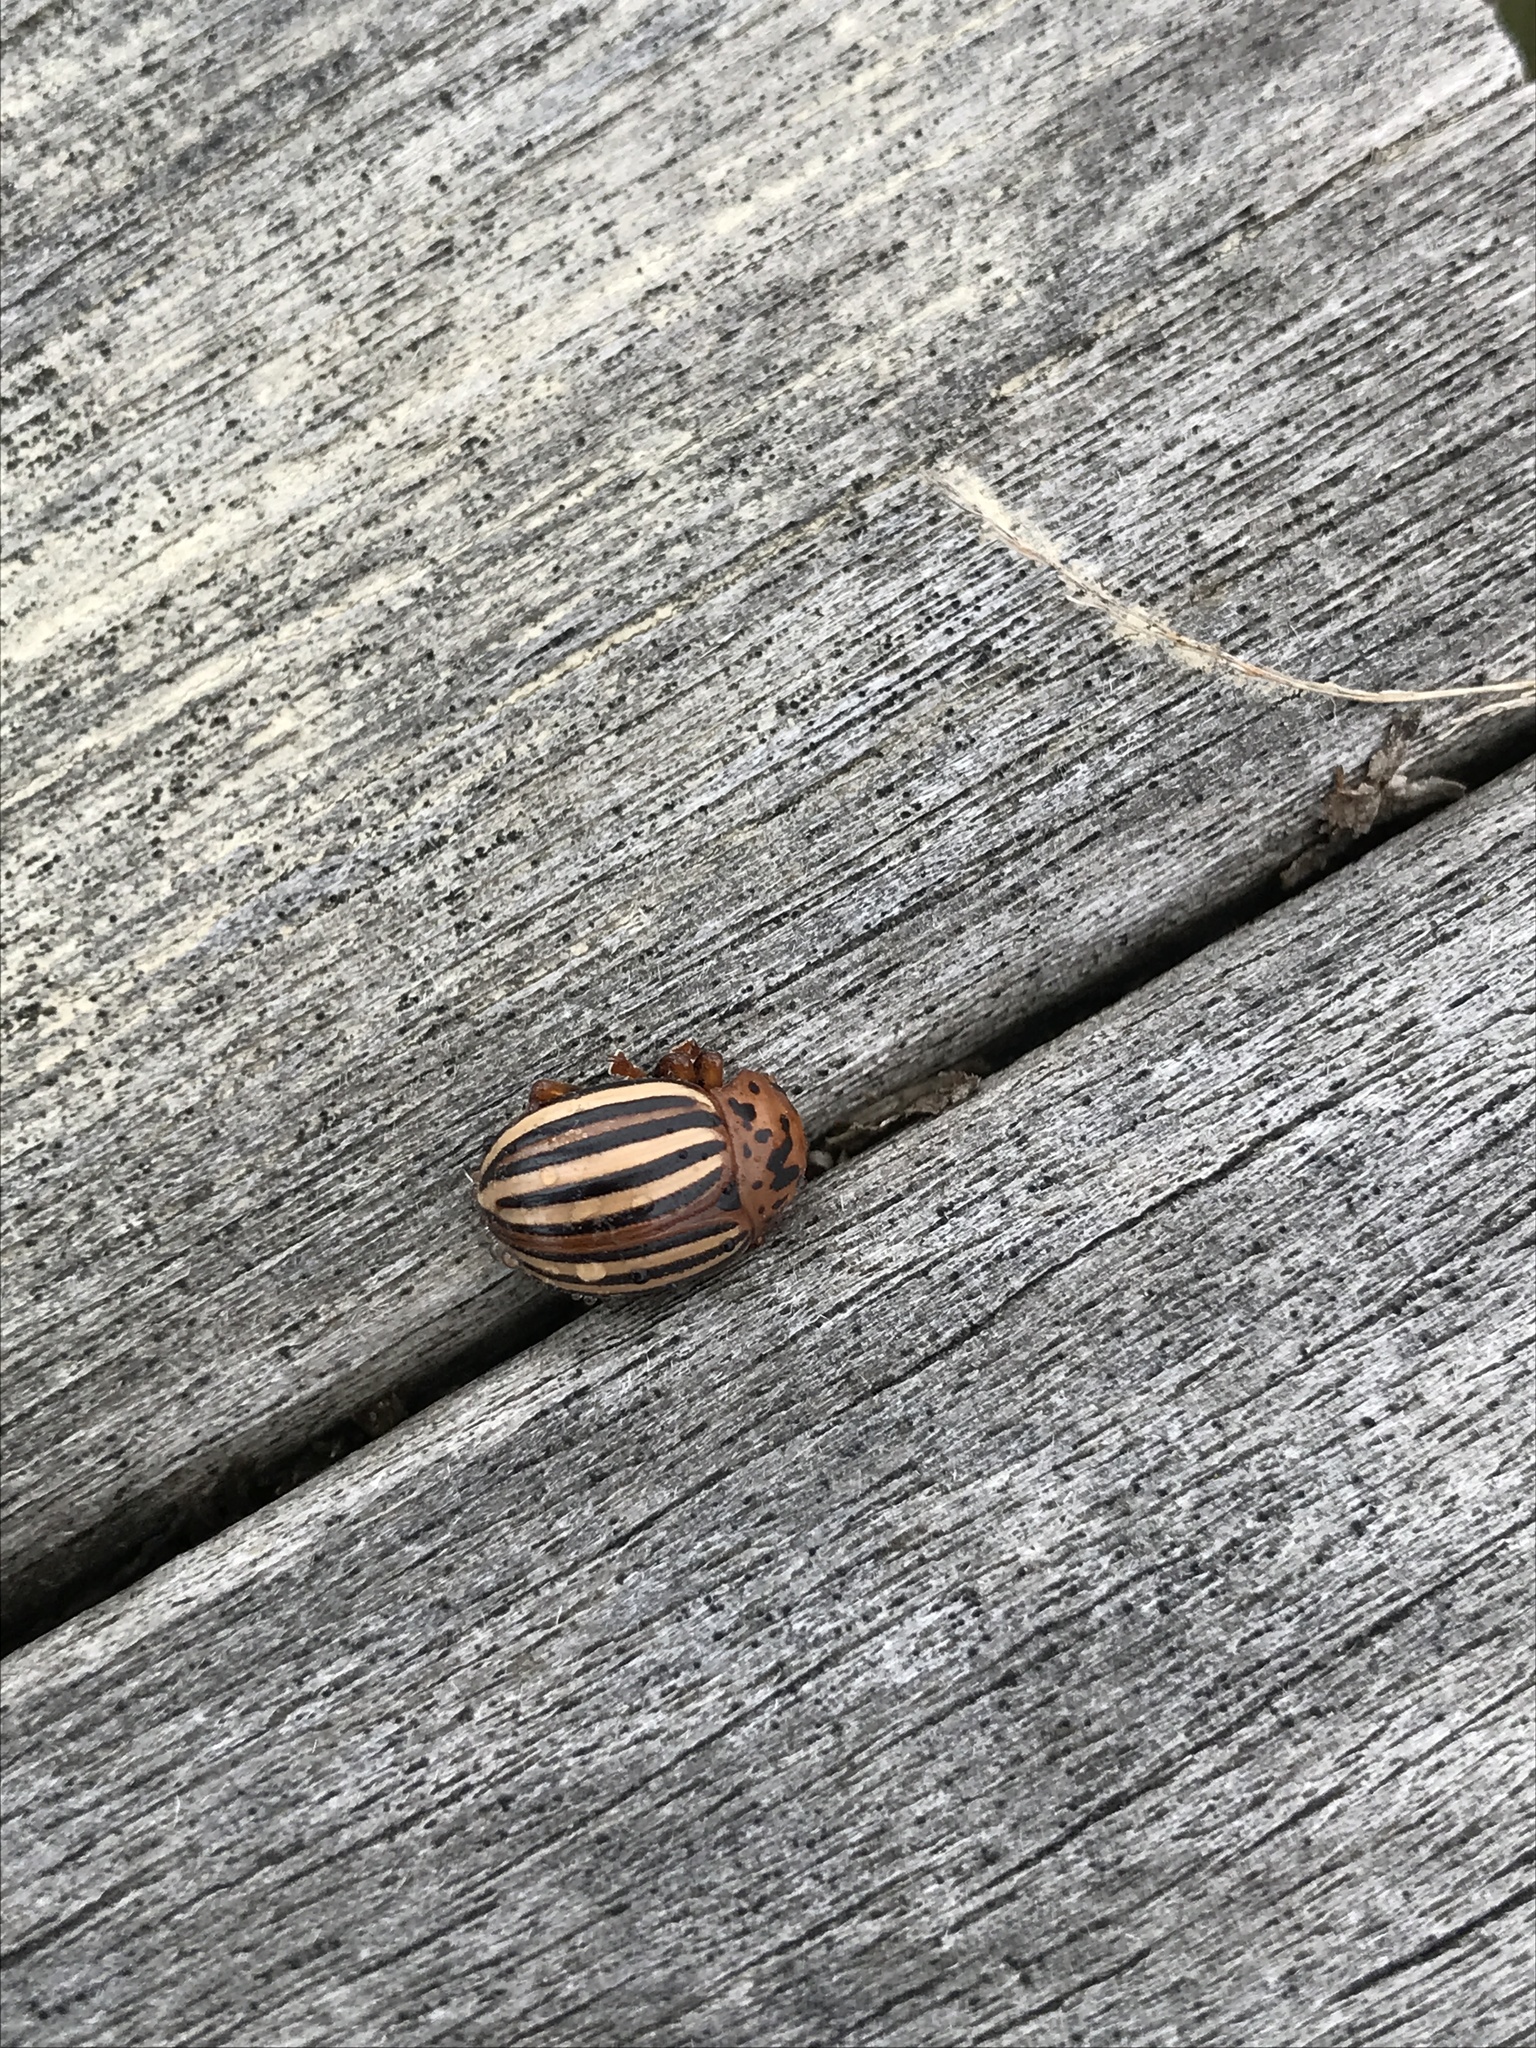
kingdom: Animalia
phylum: Arthropoda
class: Insecta
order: Coleoptera
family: Chrysomelidae
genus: Leptinotarsa
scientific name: Leptinotarsa juncta
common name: False potato beetle
